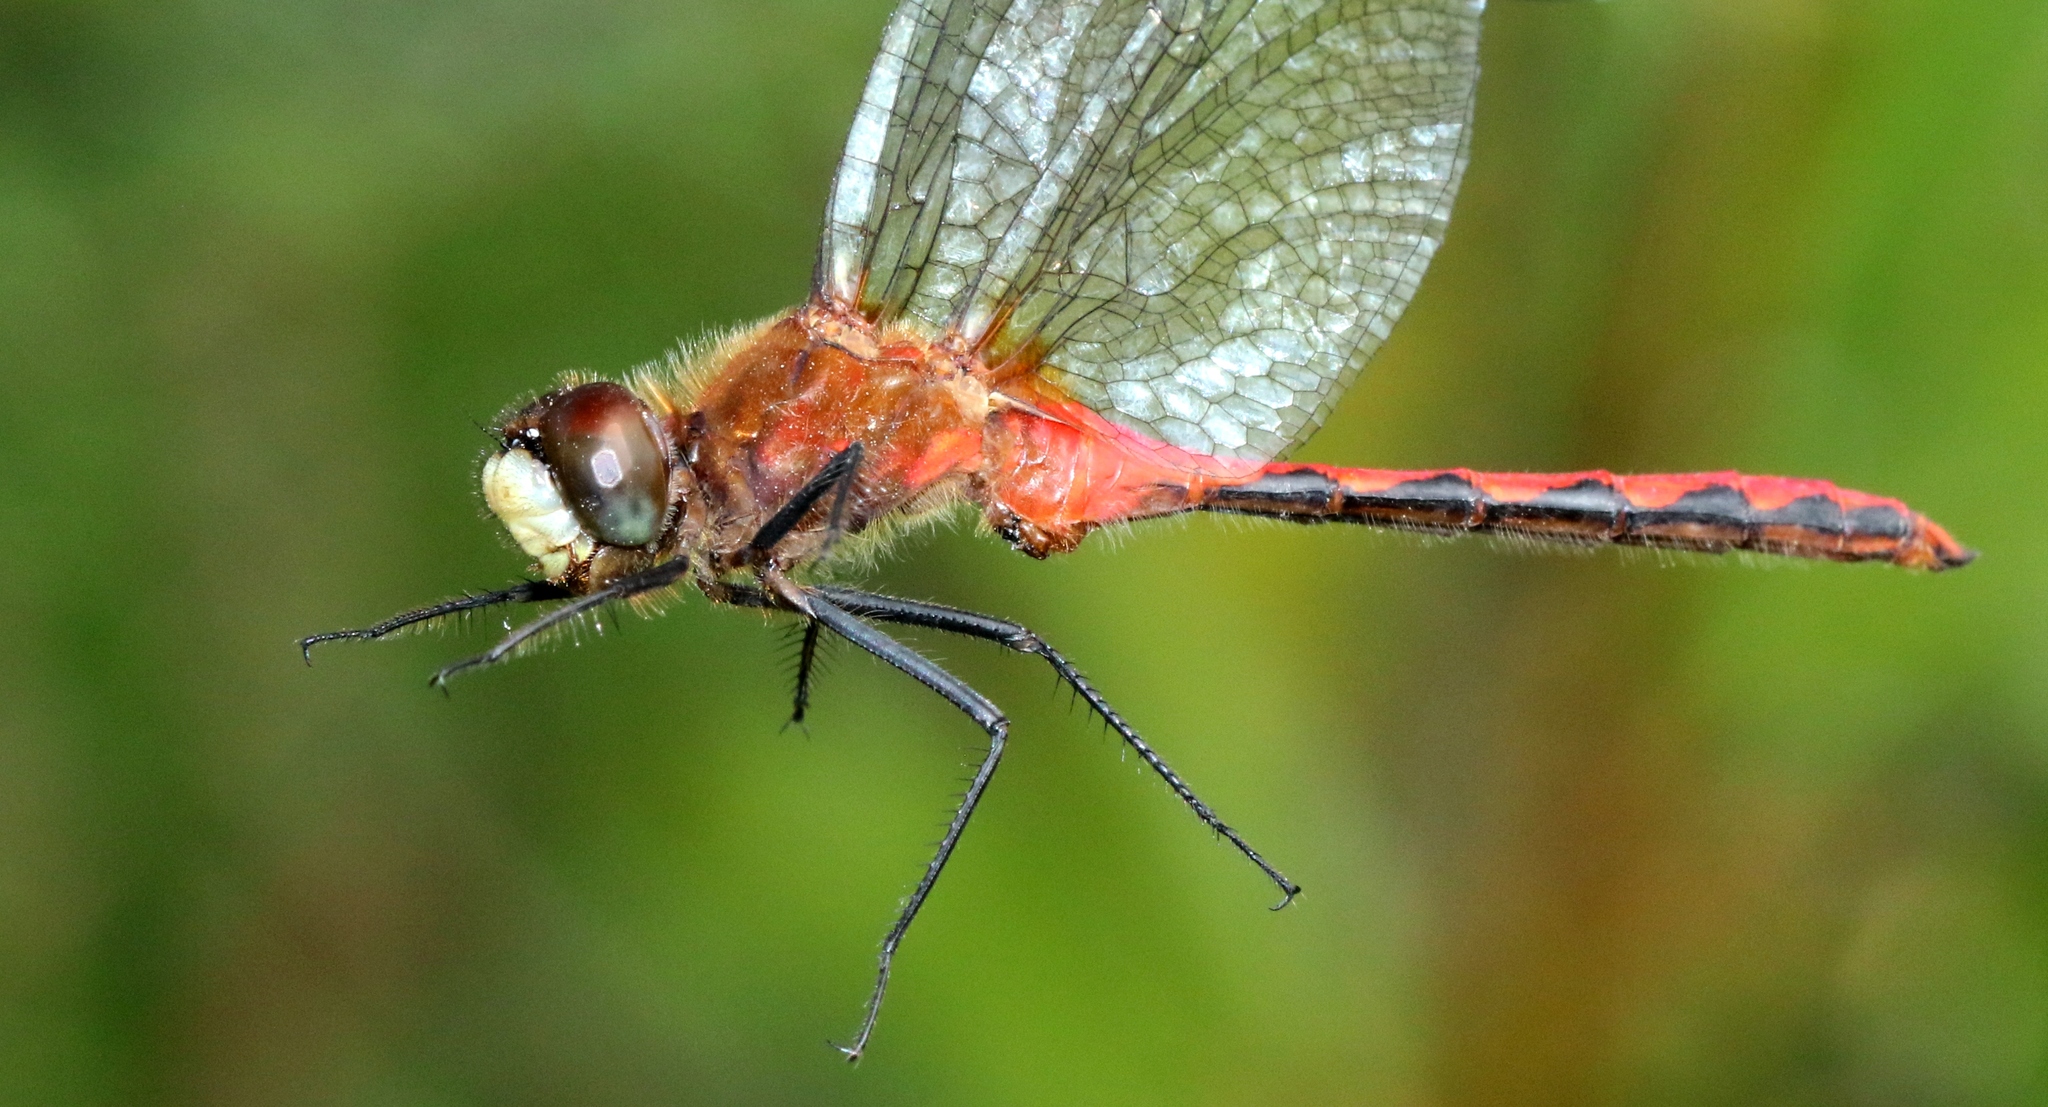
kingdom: Animalia
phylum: Arthropoda
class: Insecta
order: Odonata
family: Libellulidae
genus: Sympetrum
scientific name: Sympetrum obtrusum
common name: White-faced meadowhawk
